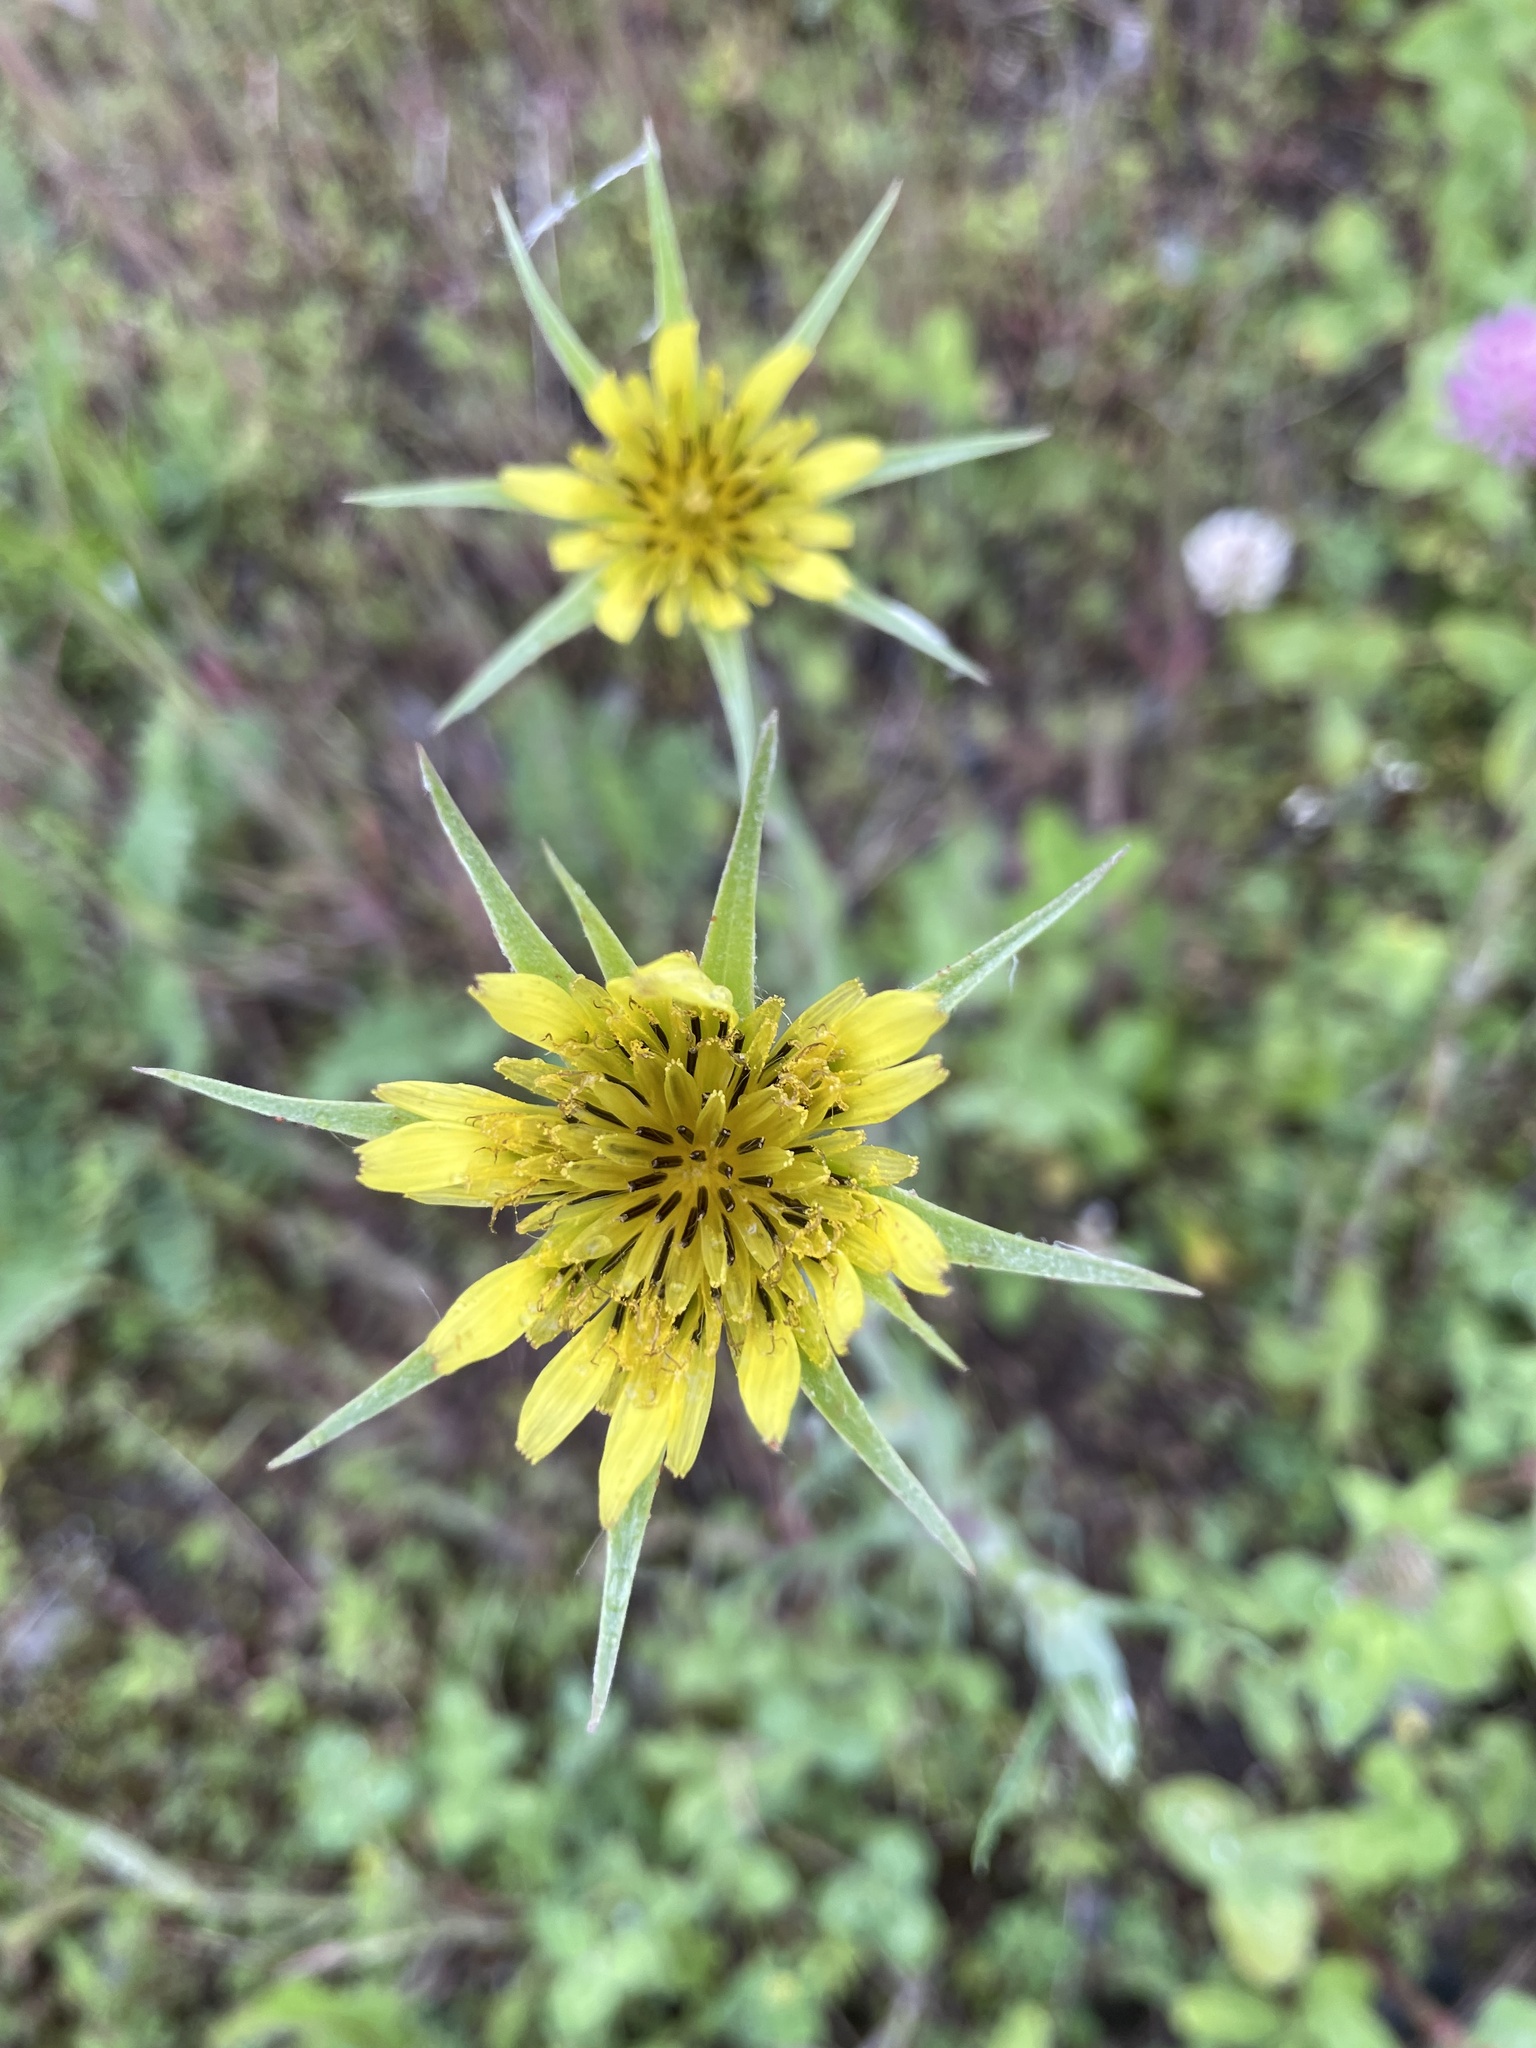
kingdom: Plantae
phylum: Tracheophyta
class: Magnoliopsida
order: Asterales
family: Asteraceae
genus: Tragopogon
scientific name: Tragopogon dubius
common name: Yellow salsify
